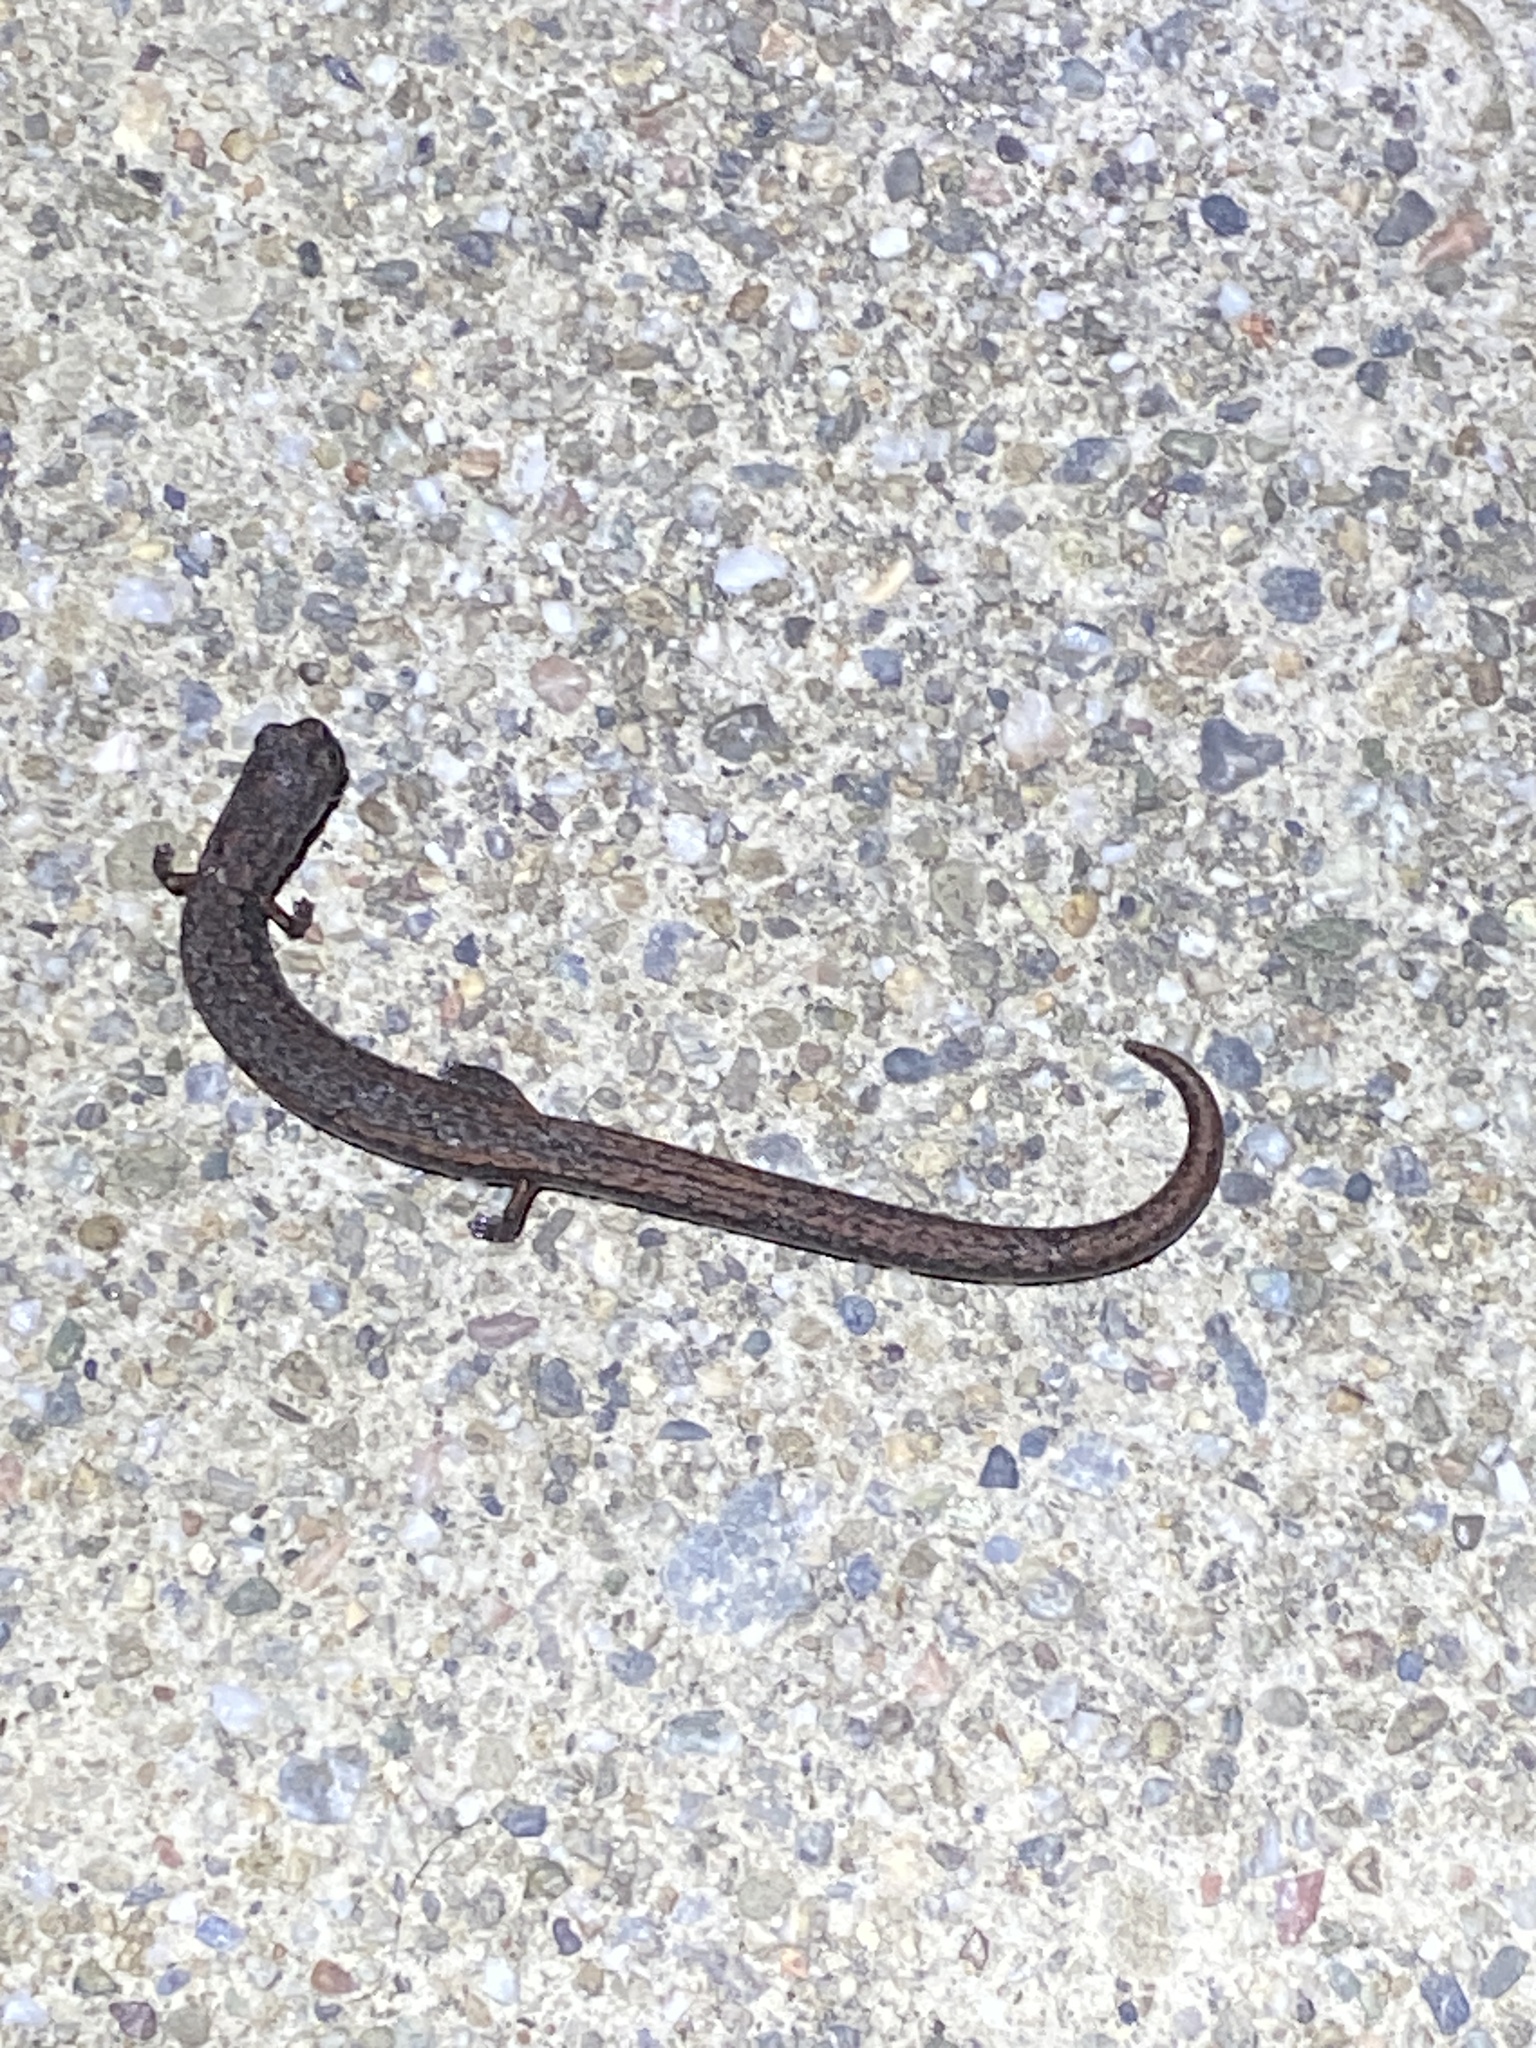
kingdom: Animalia
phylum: Chordata
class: Amphibia
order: Caudata
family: Plethodontidae
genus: Batrachoseps
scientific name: Batrachoseps attenuatus
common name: California slender salamander
